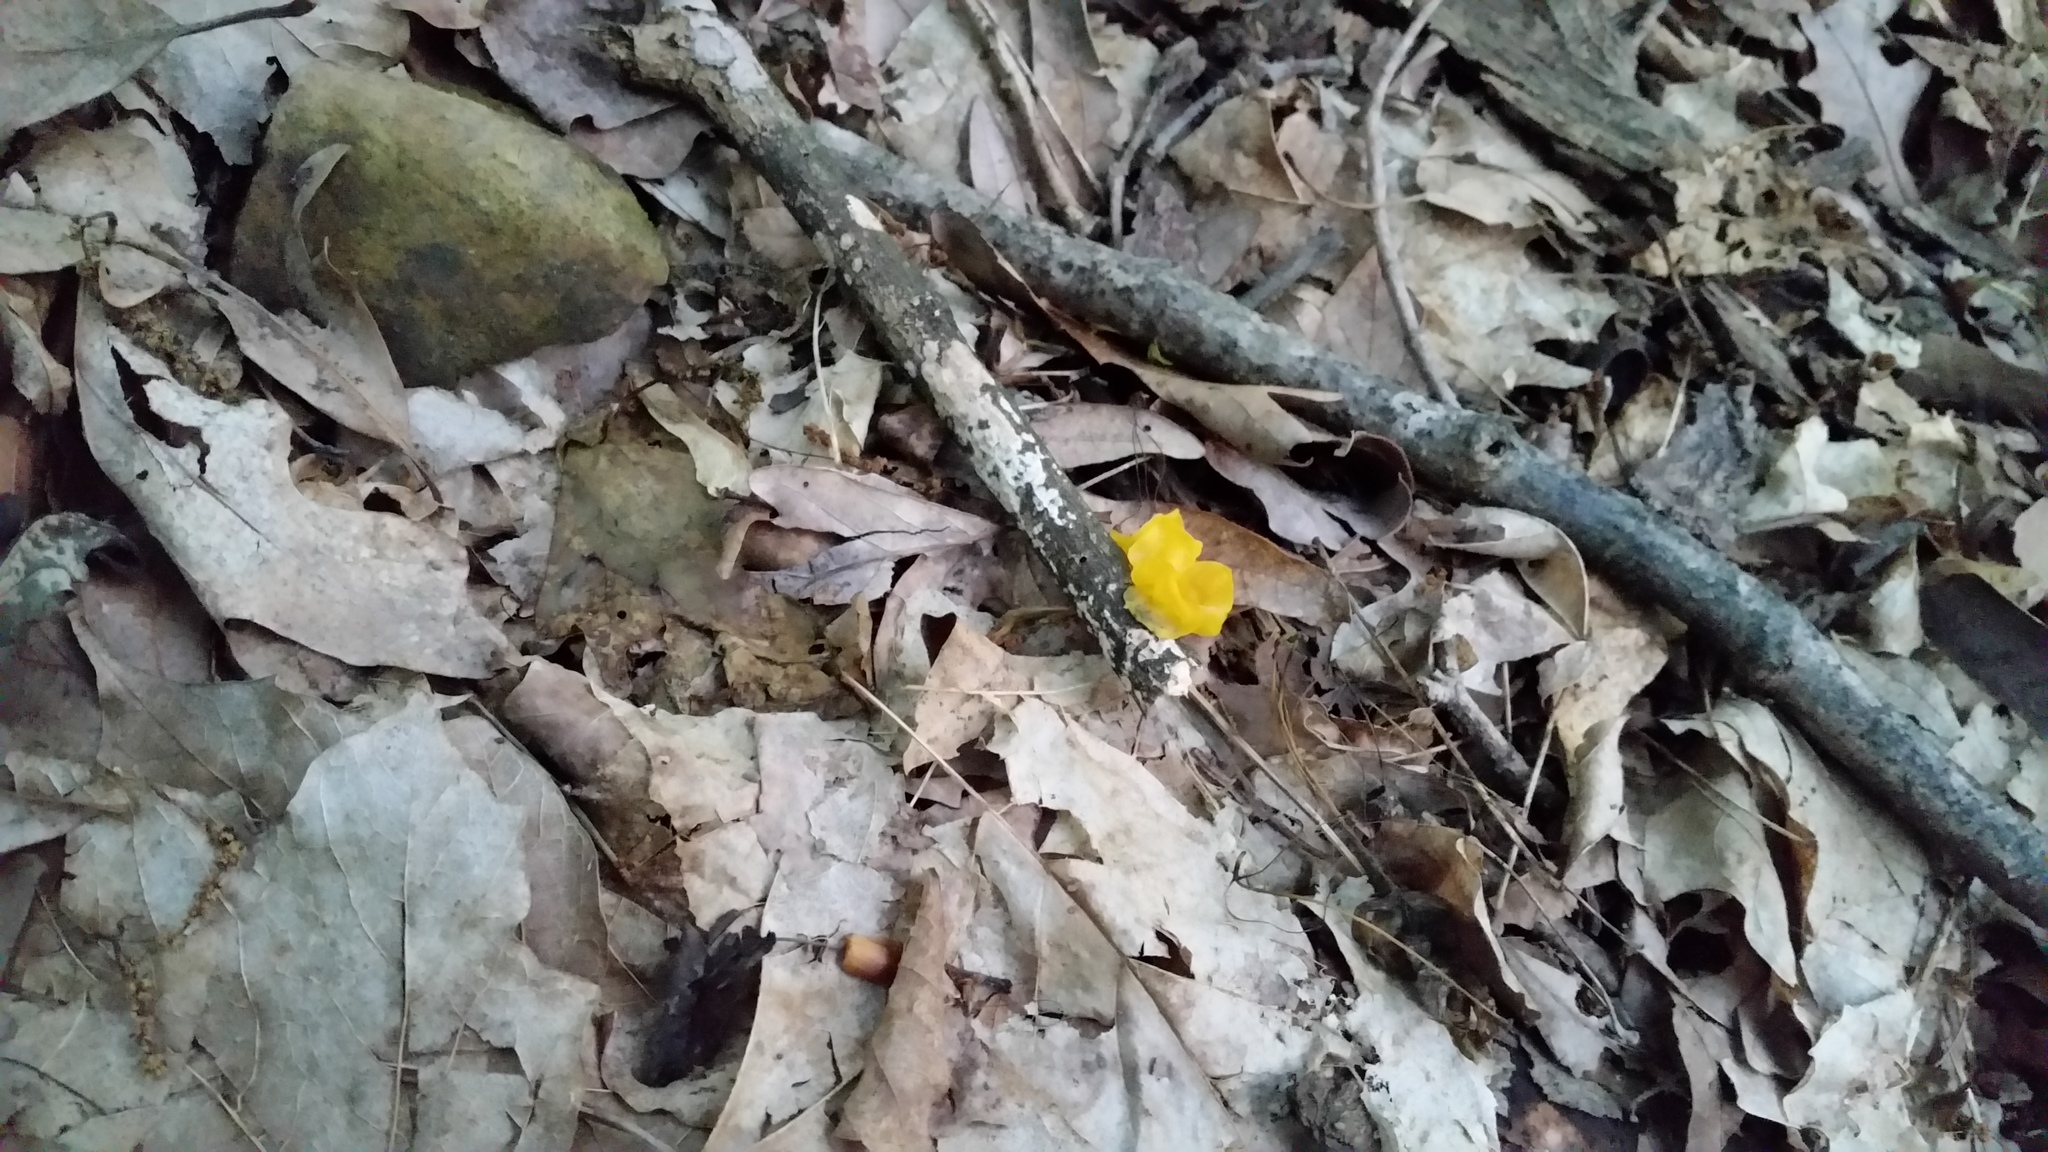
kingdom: Fungi
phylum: Basidiomycota
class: Tremellomycetes
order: Tremellales
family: Tremellaceae
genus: Tremella
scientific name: Tremella mesenterica
